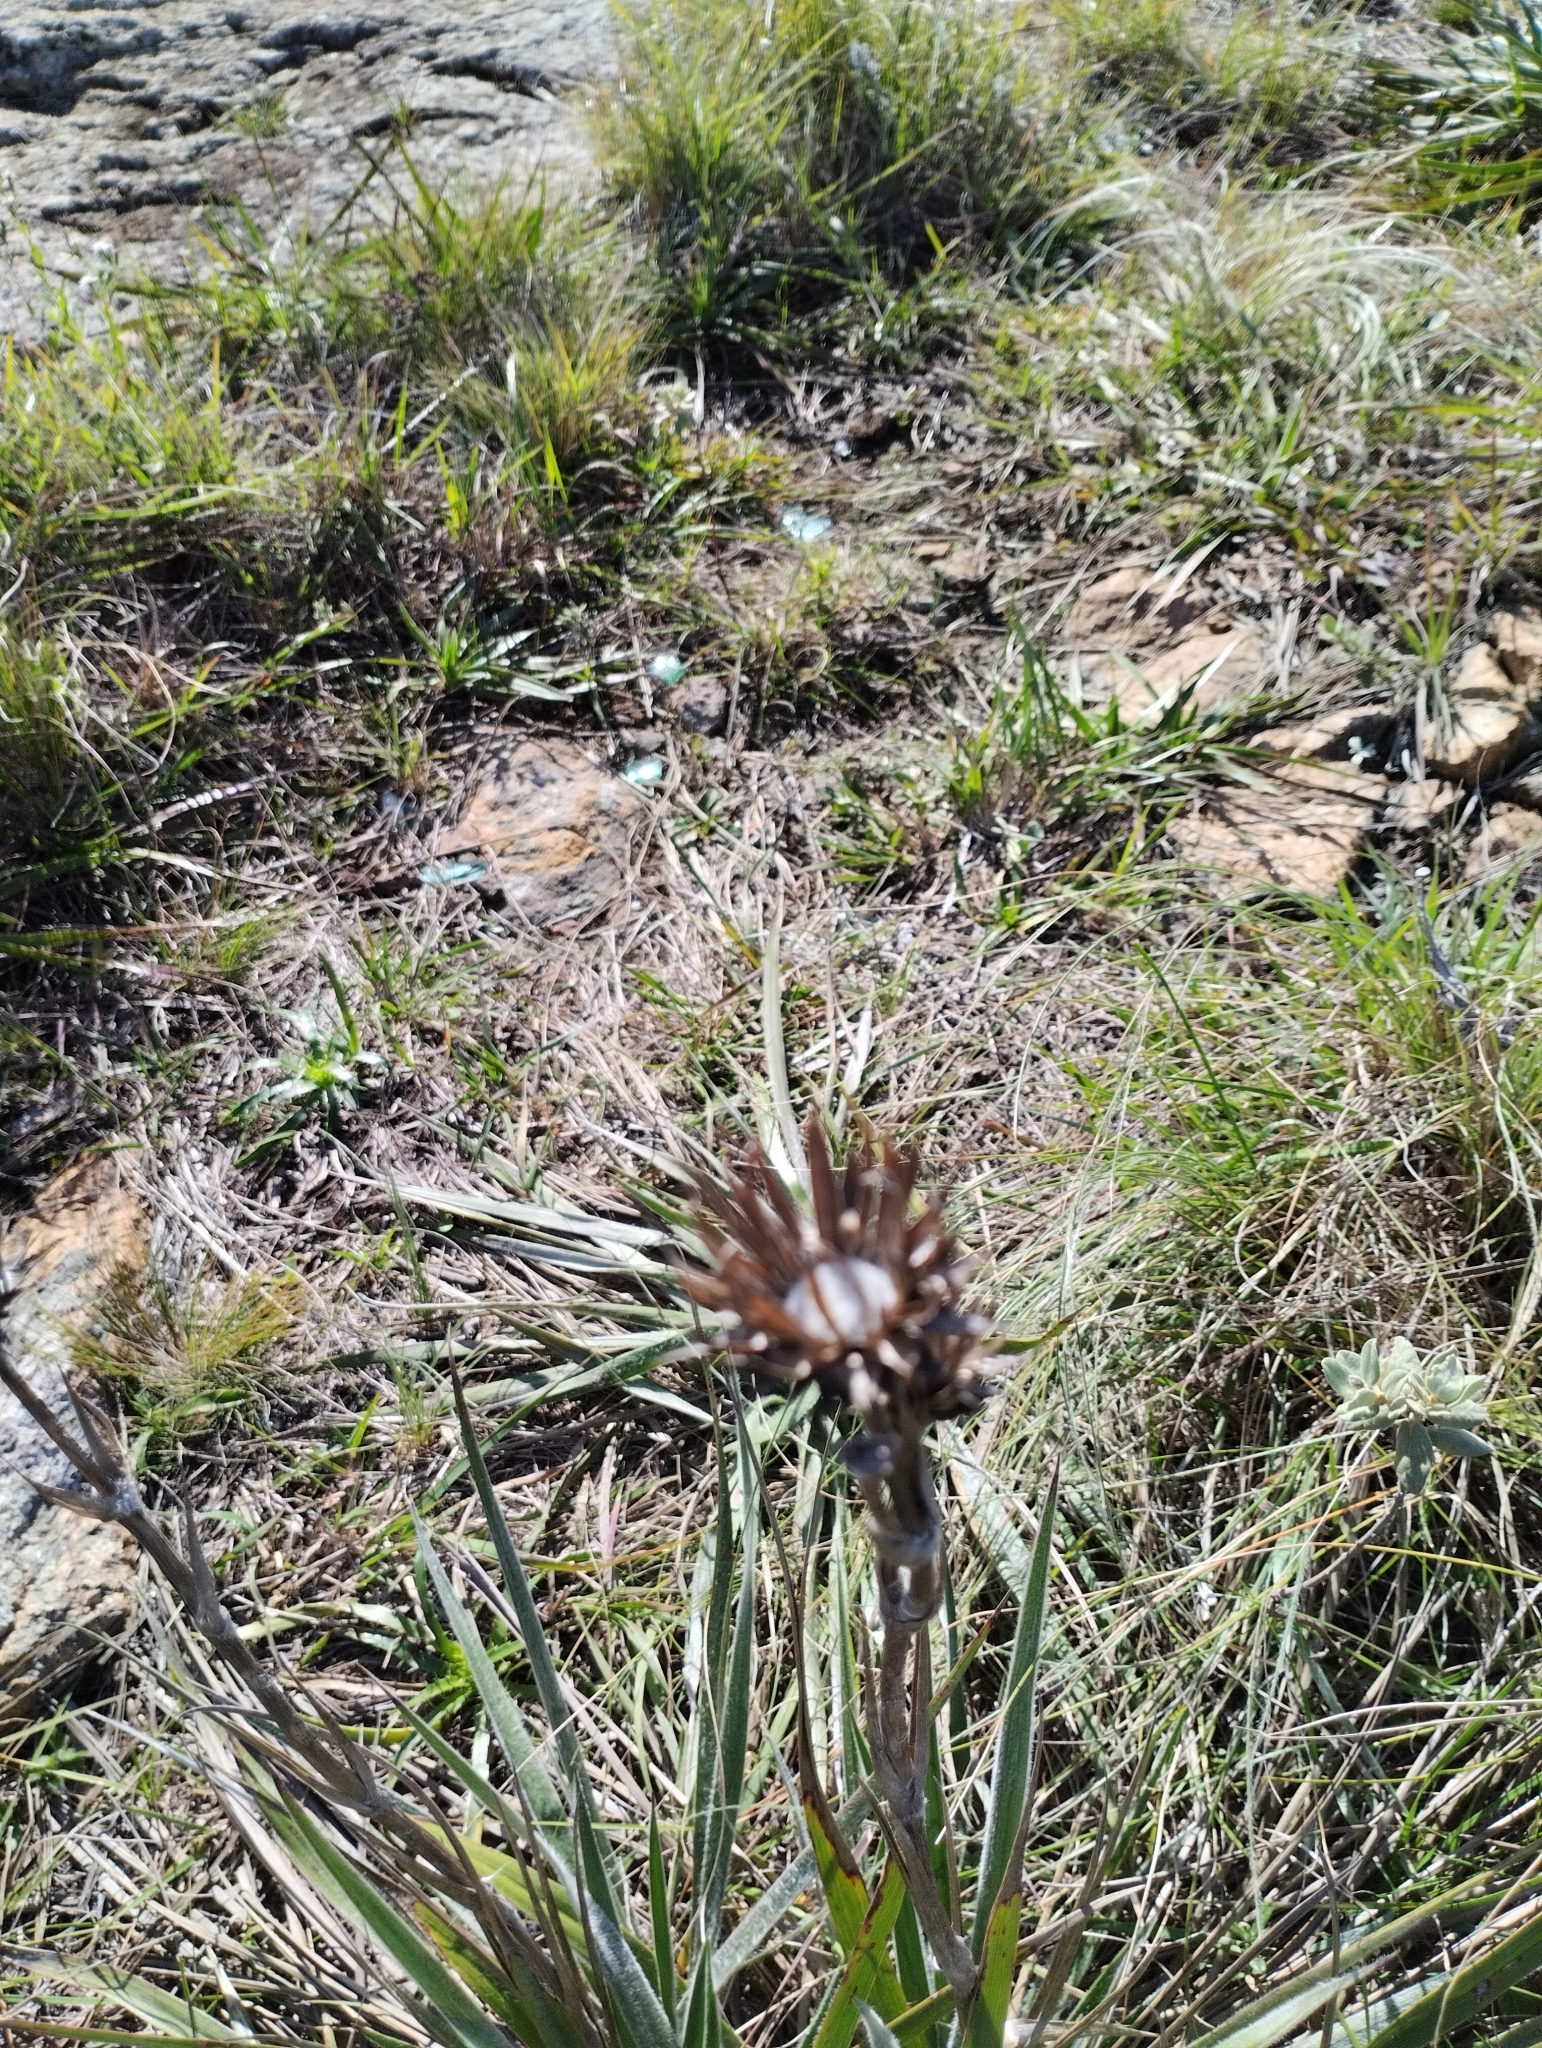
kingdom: Plantae
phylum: Tracheophyta
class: Magnoliopsida
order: Asterales
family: Asteraceae
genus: Schlechtendalia
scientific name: Schlechtendalia luzulifolia
